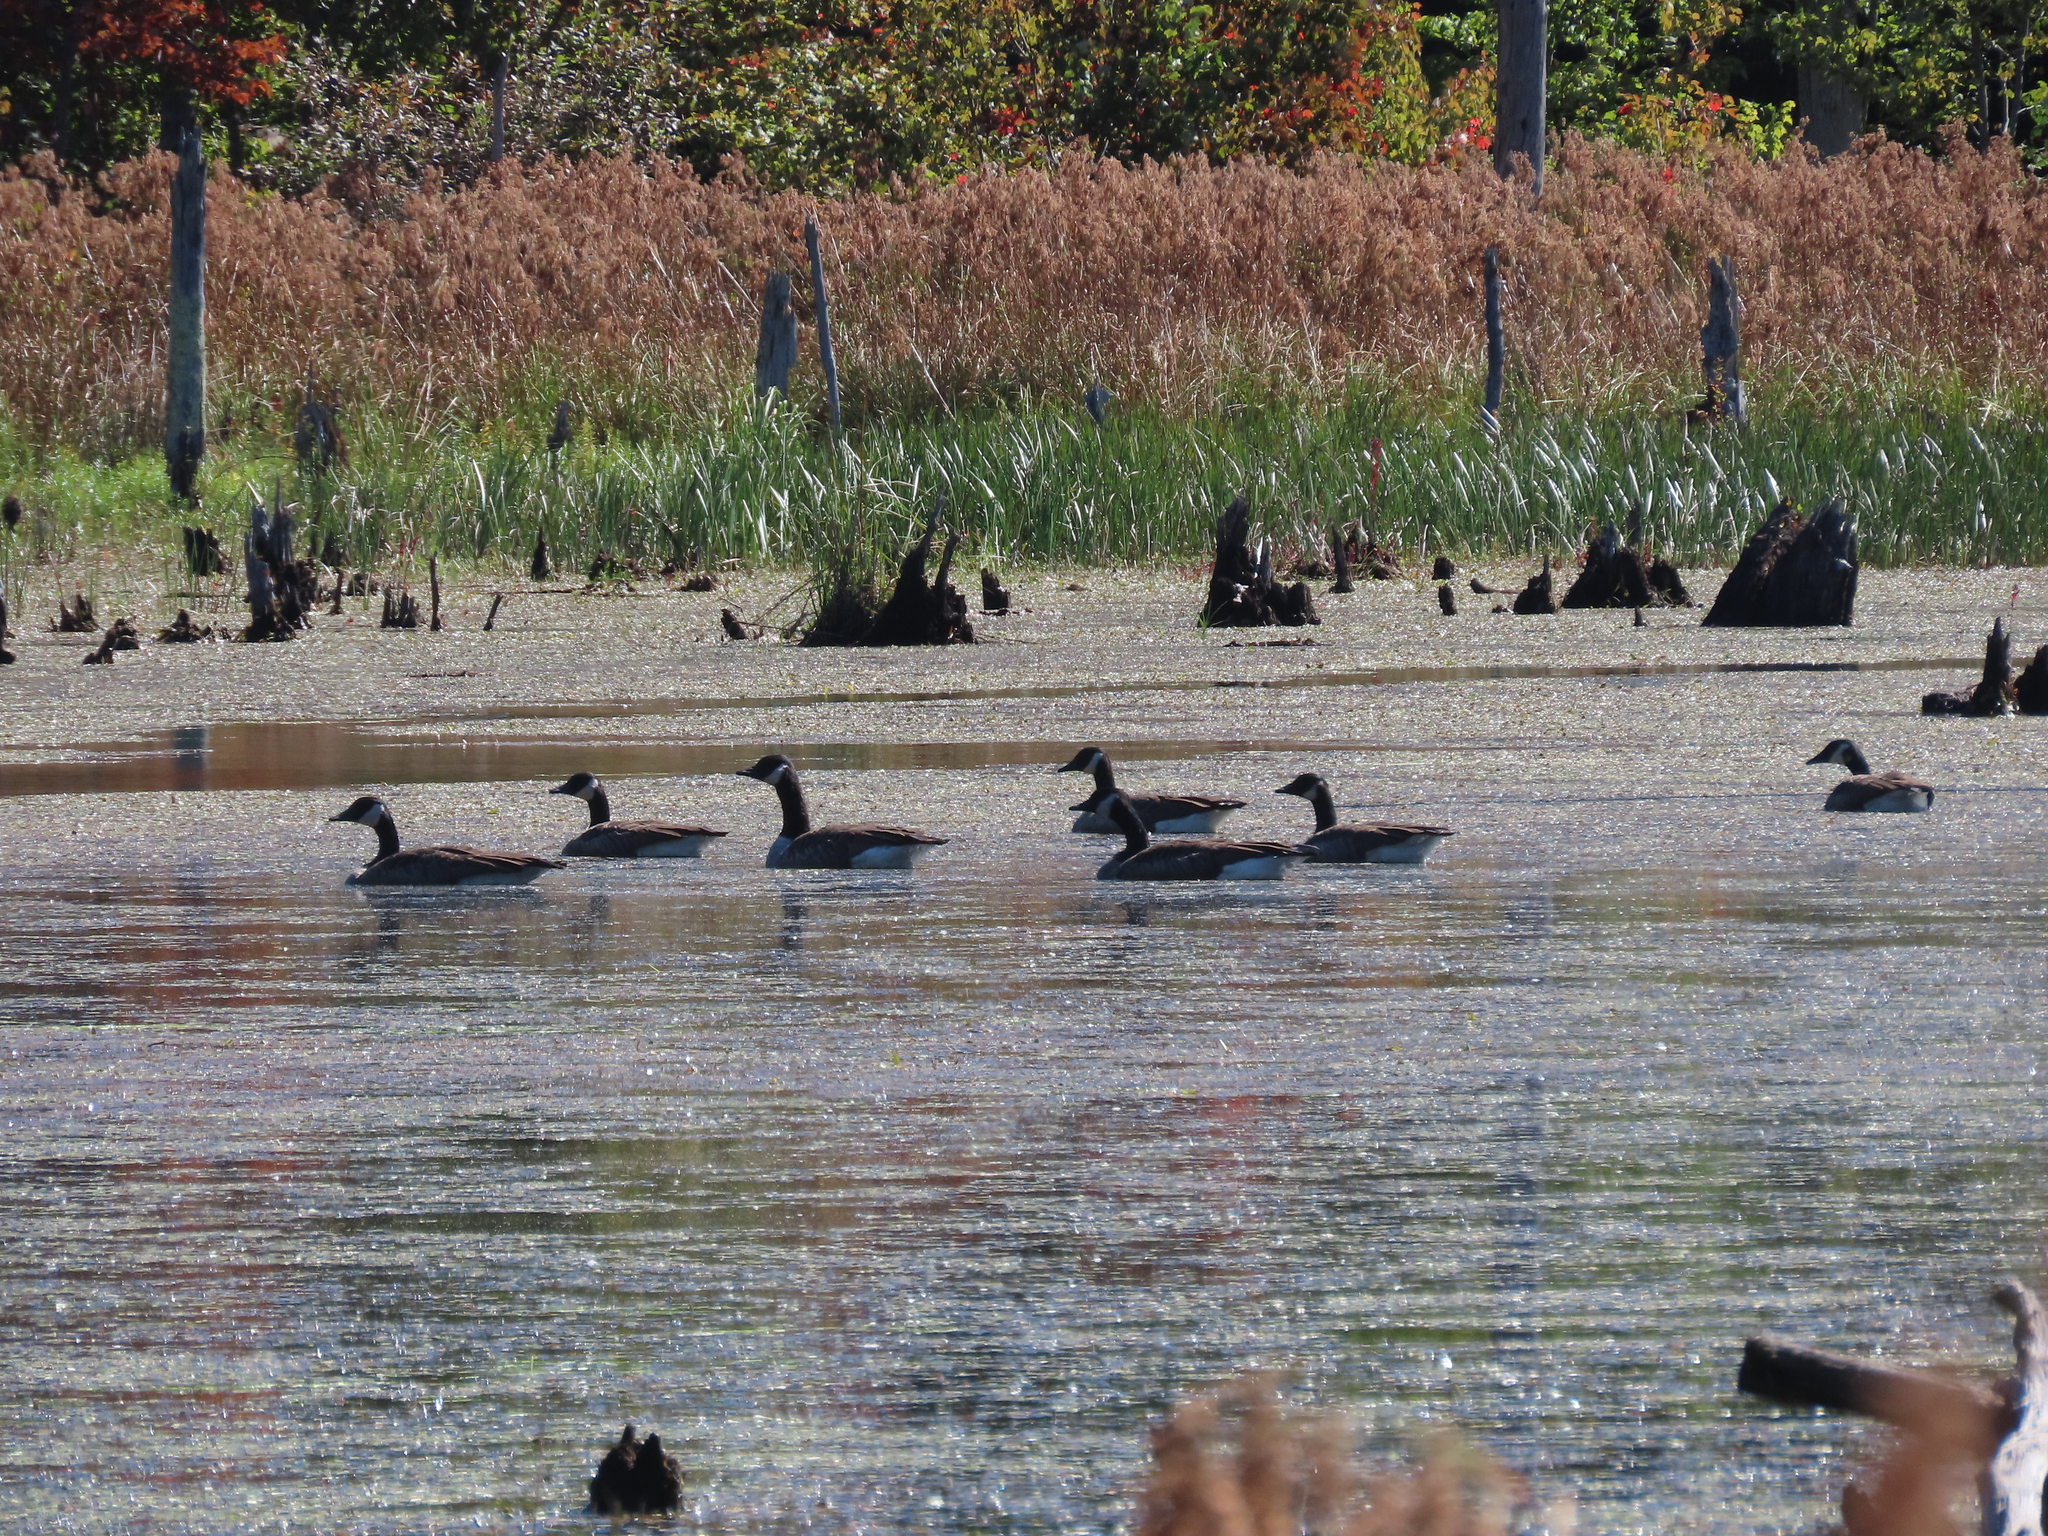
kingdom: Animalia
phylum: Chordata
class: Aves
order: Anseriformes
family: Anatidae
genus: Branta
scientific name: Branta canadensis
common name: Canada goose
